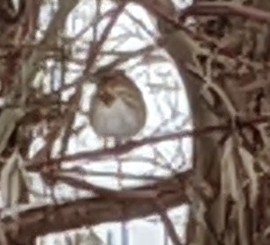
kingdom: Animalia
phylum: Chordata
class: Aves
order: Passeriformes
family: Passerellidae
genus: Melospiza
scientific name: Melospiza melodia
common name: Song sparrow
